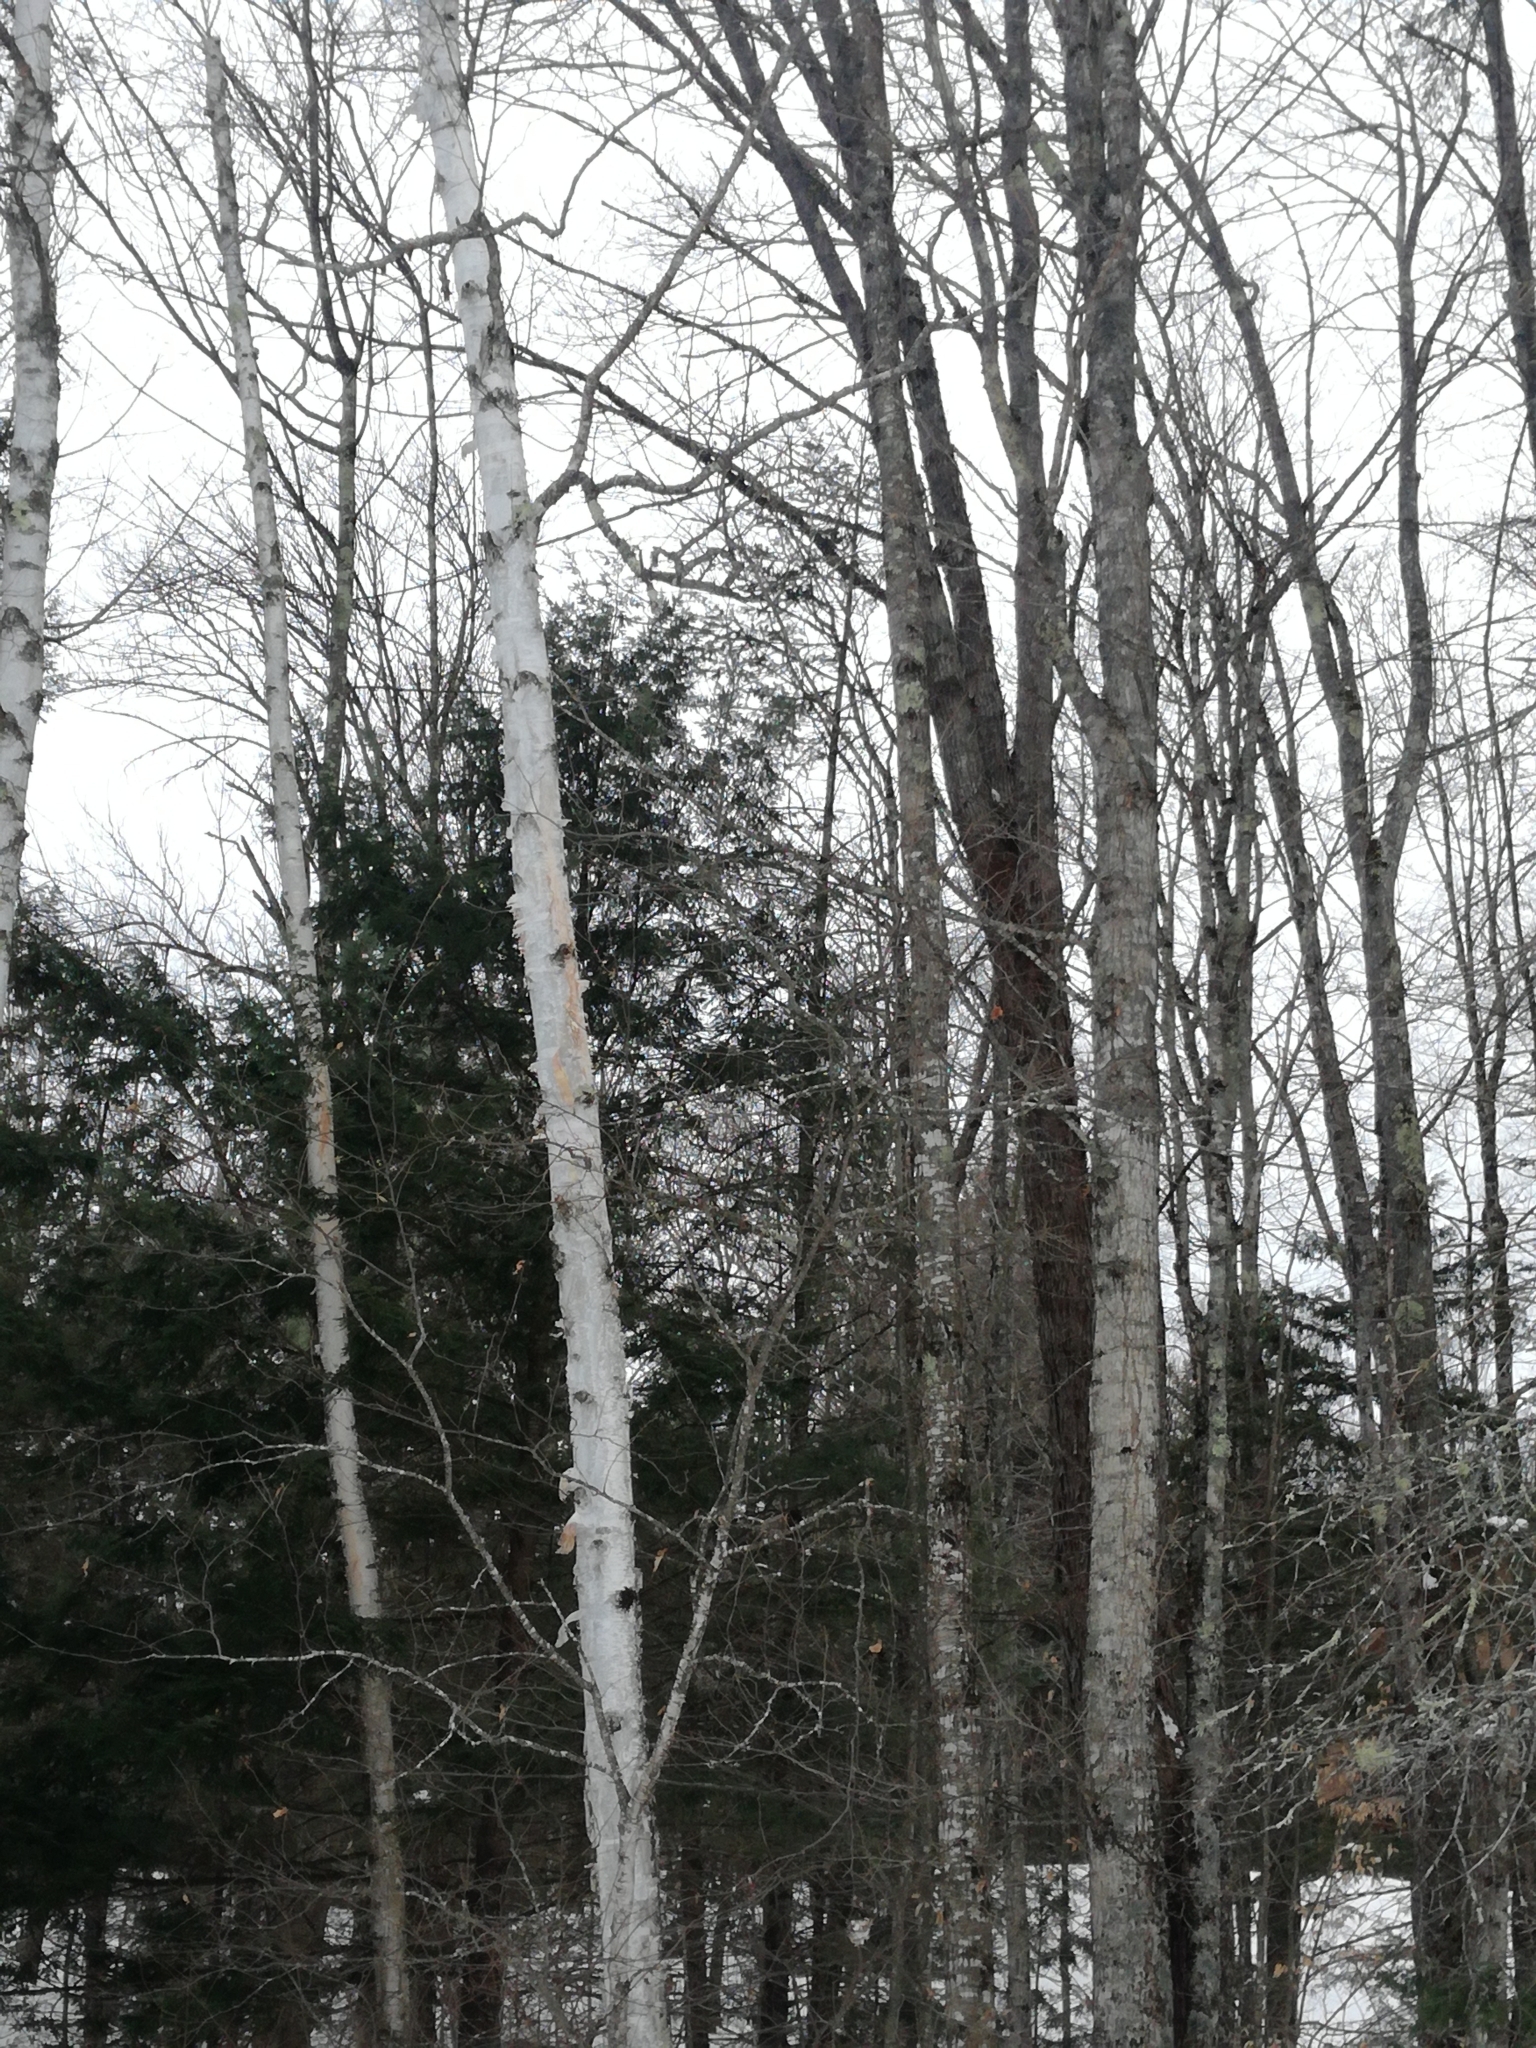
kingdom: Plantae
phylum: Tracheophyta
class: Magnoliopsida
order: Fagales
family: Betulaceae
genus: Betula
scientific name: Betula papyrifera
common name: Paper birch
